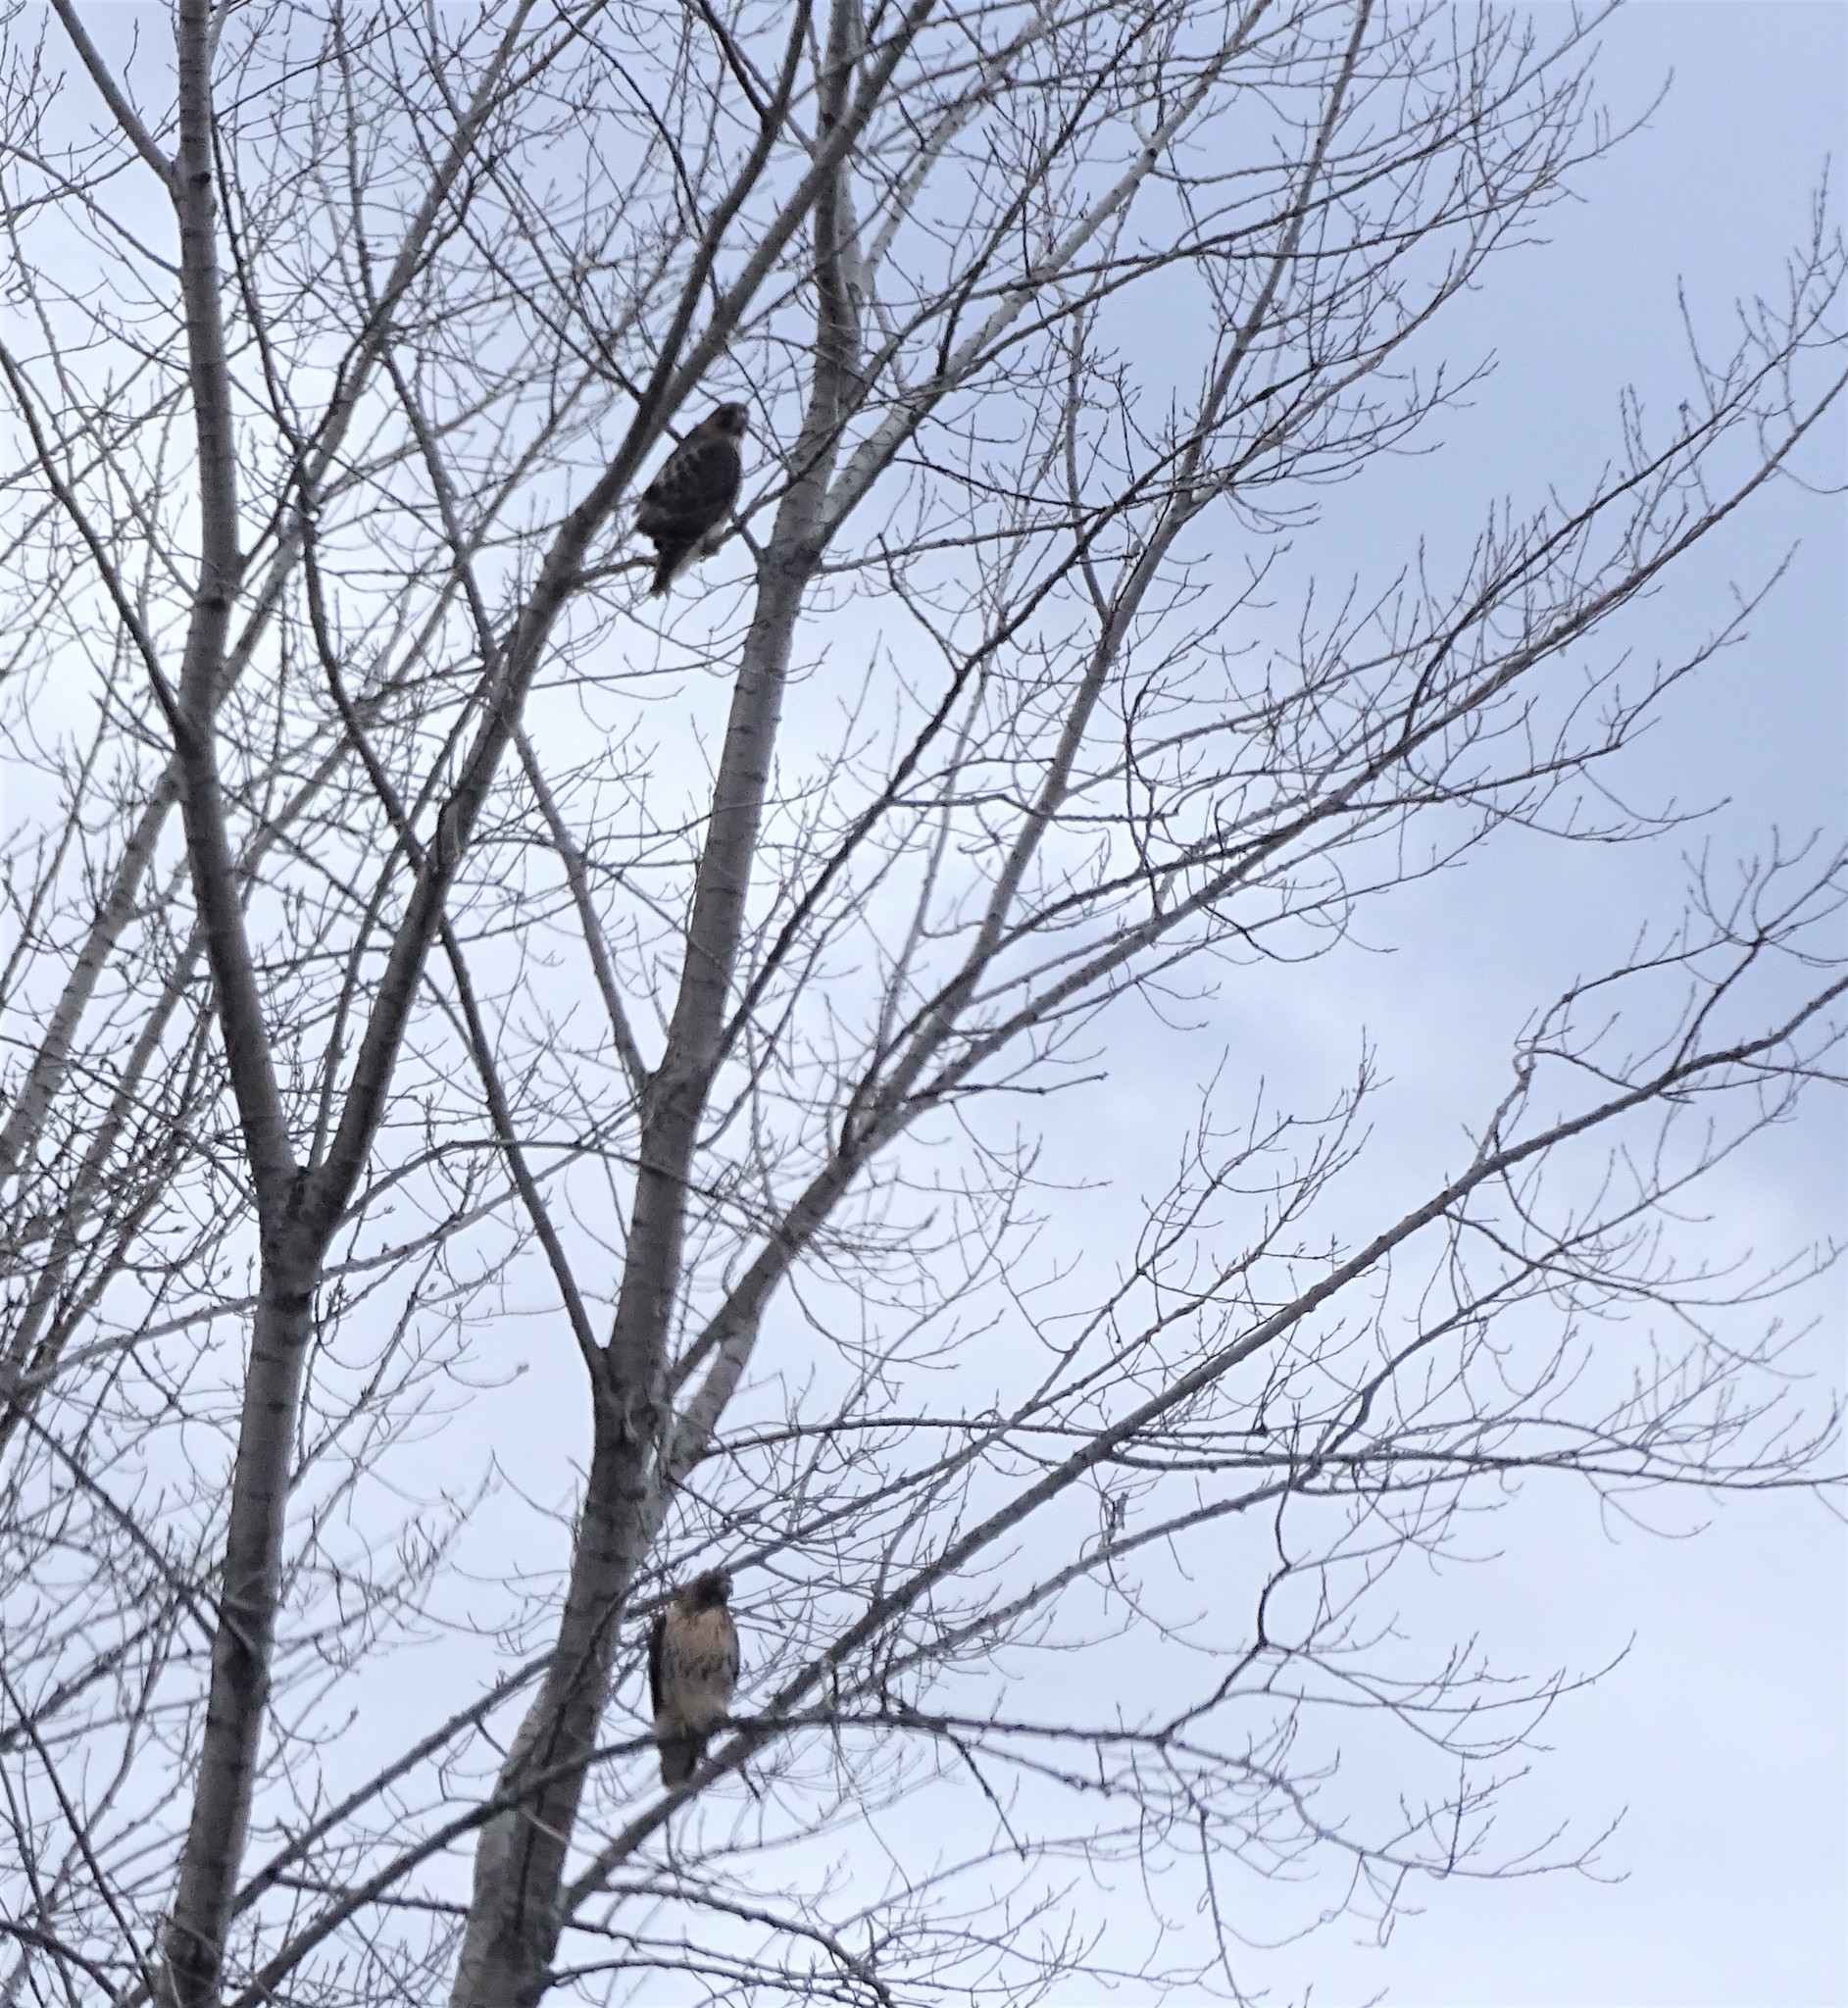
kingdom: Animalia
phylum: Chordata
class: Aves
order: Accipitriformes
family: Accipitridae
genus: Buteo
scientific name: Buteo jamaicensis
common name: Red-tailed hawk
